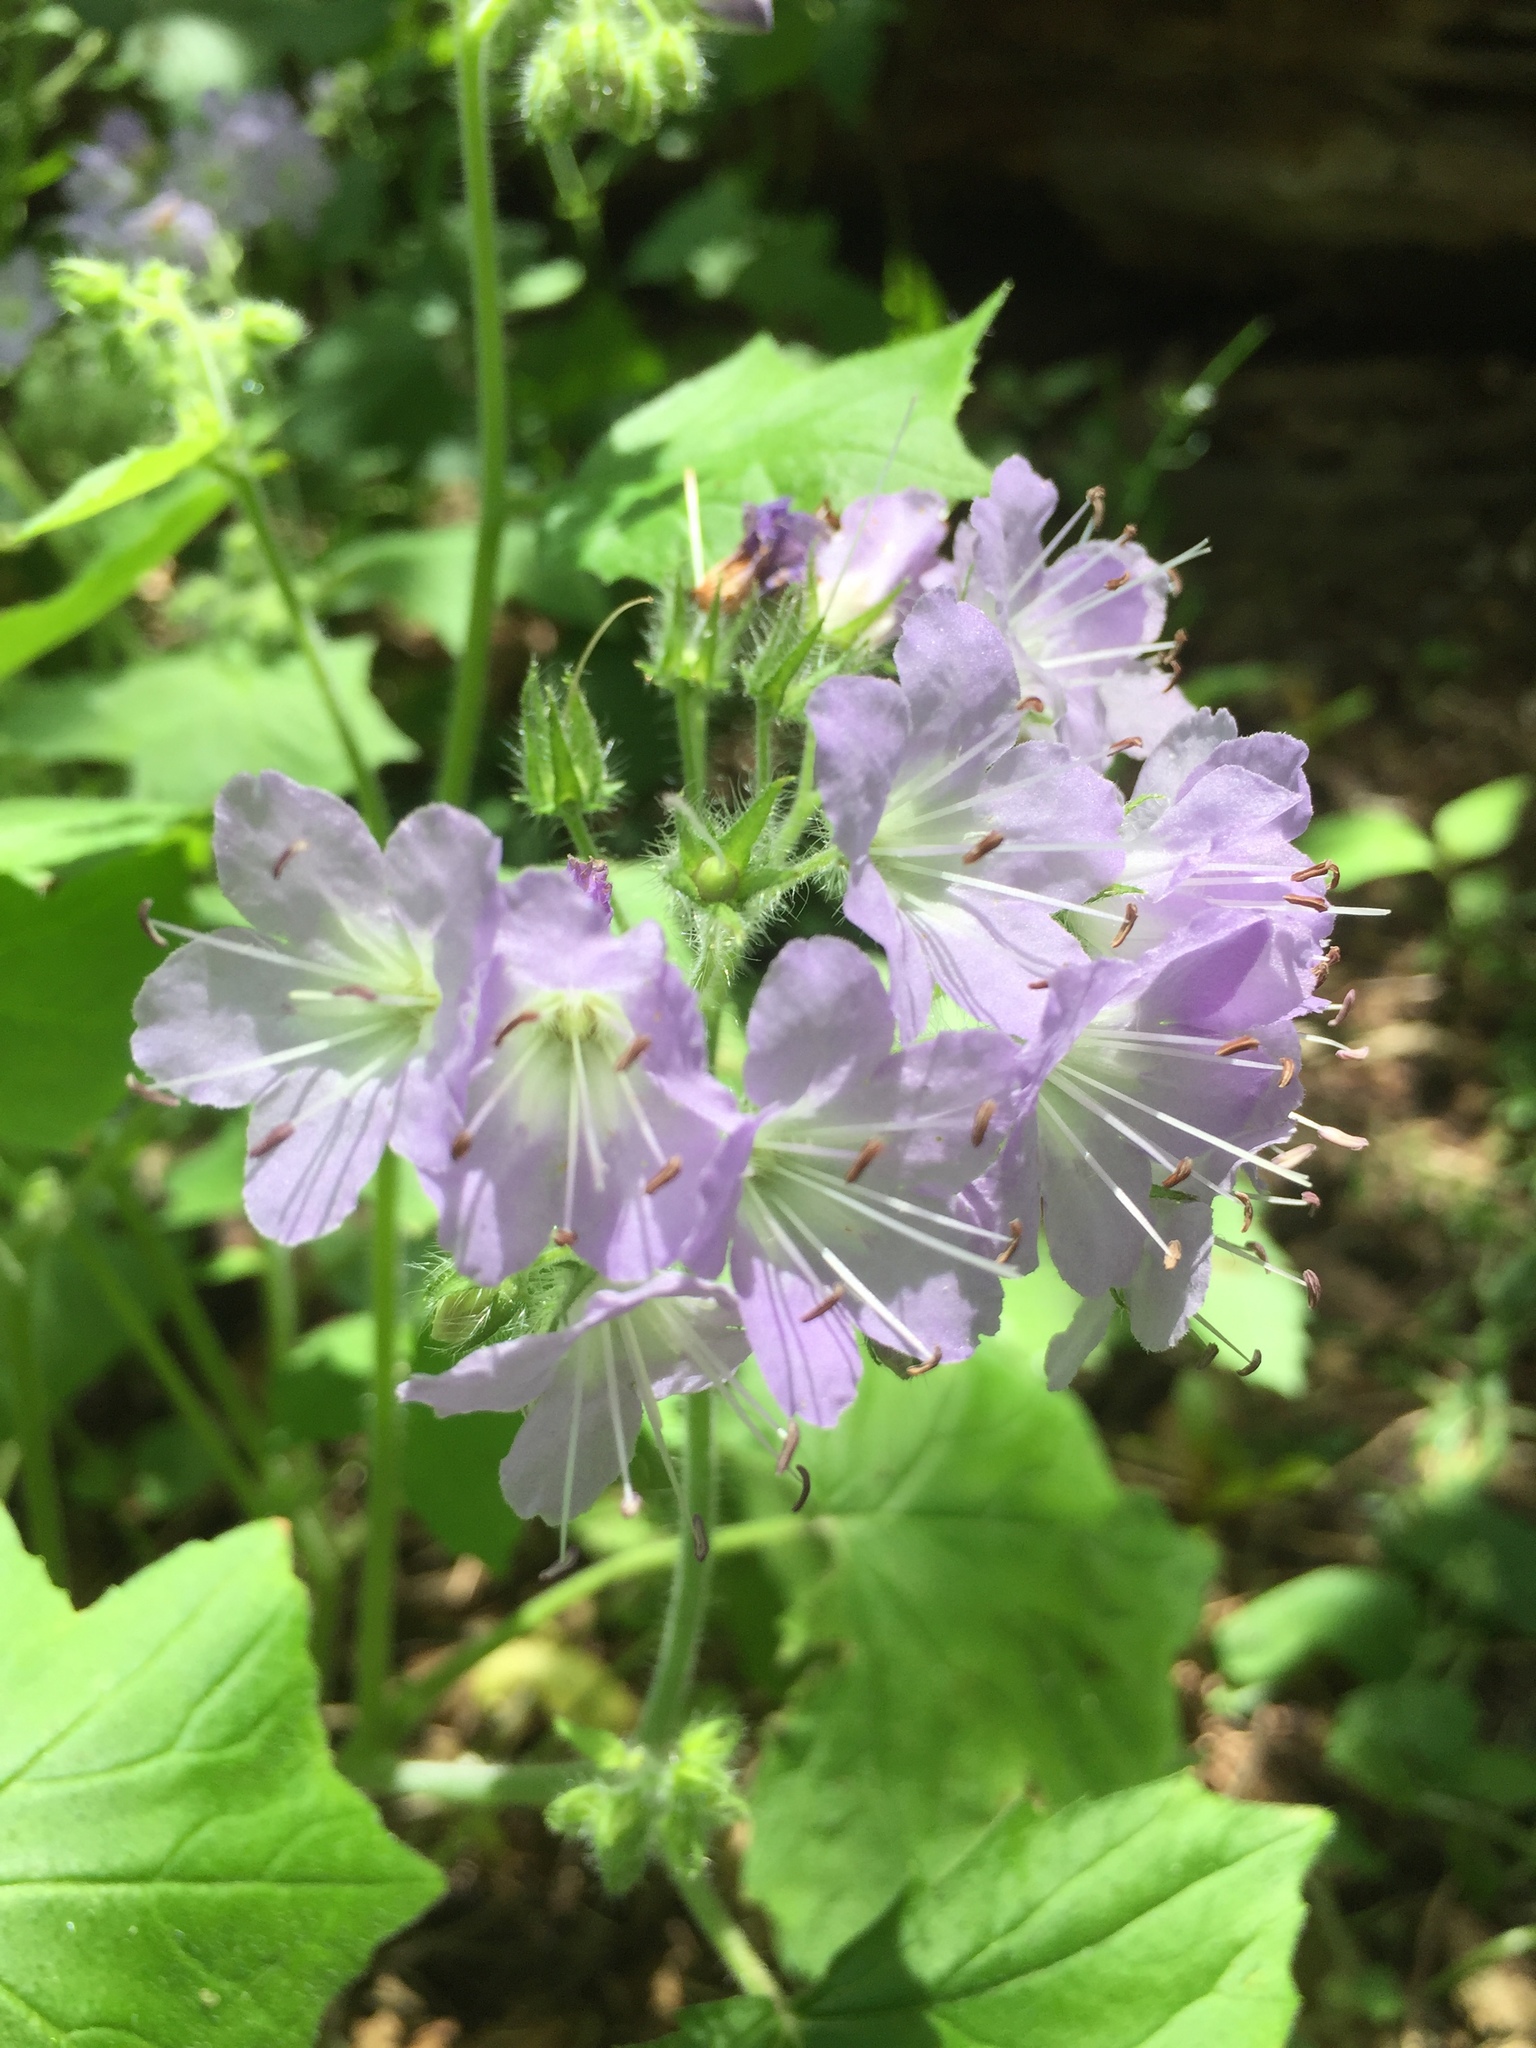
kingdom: Plantae
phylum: Tracheophyta
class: Magnoliopsida
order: Boraginales
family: Hydrophyllaceae
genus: Hydrophyllum
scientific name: Hydrophyllum appendiculatum
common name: Appendaged waterleaf
